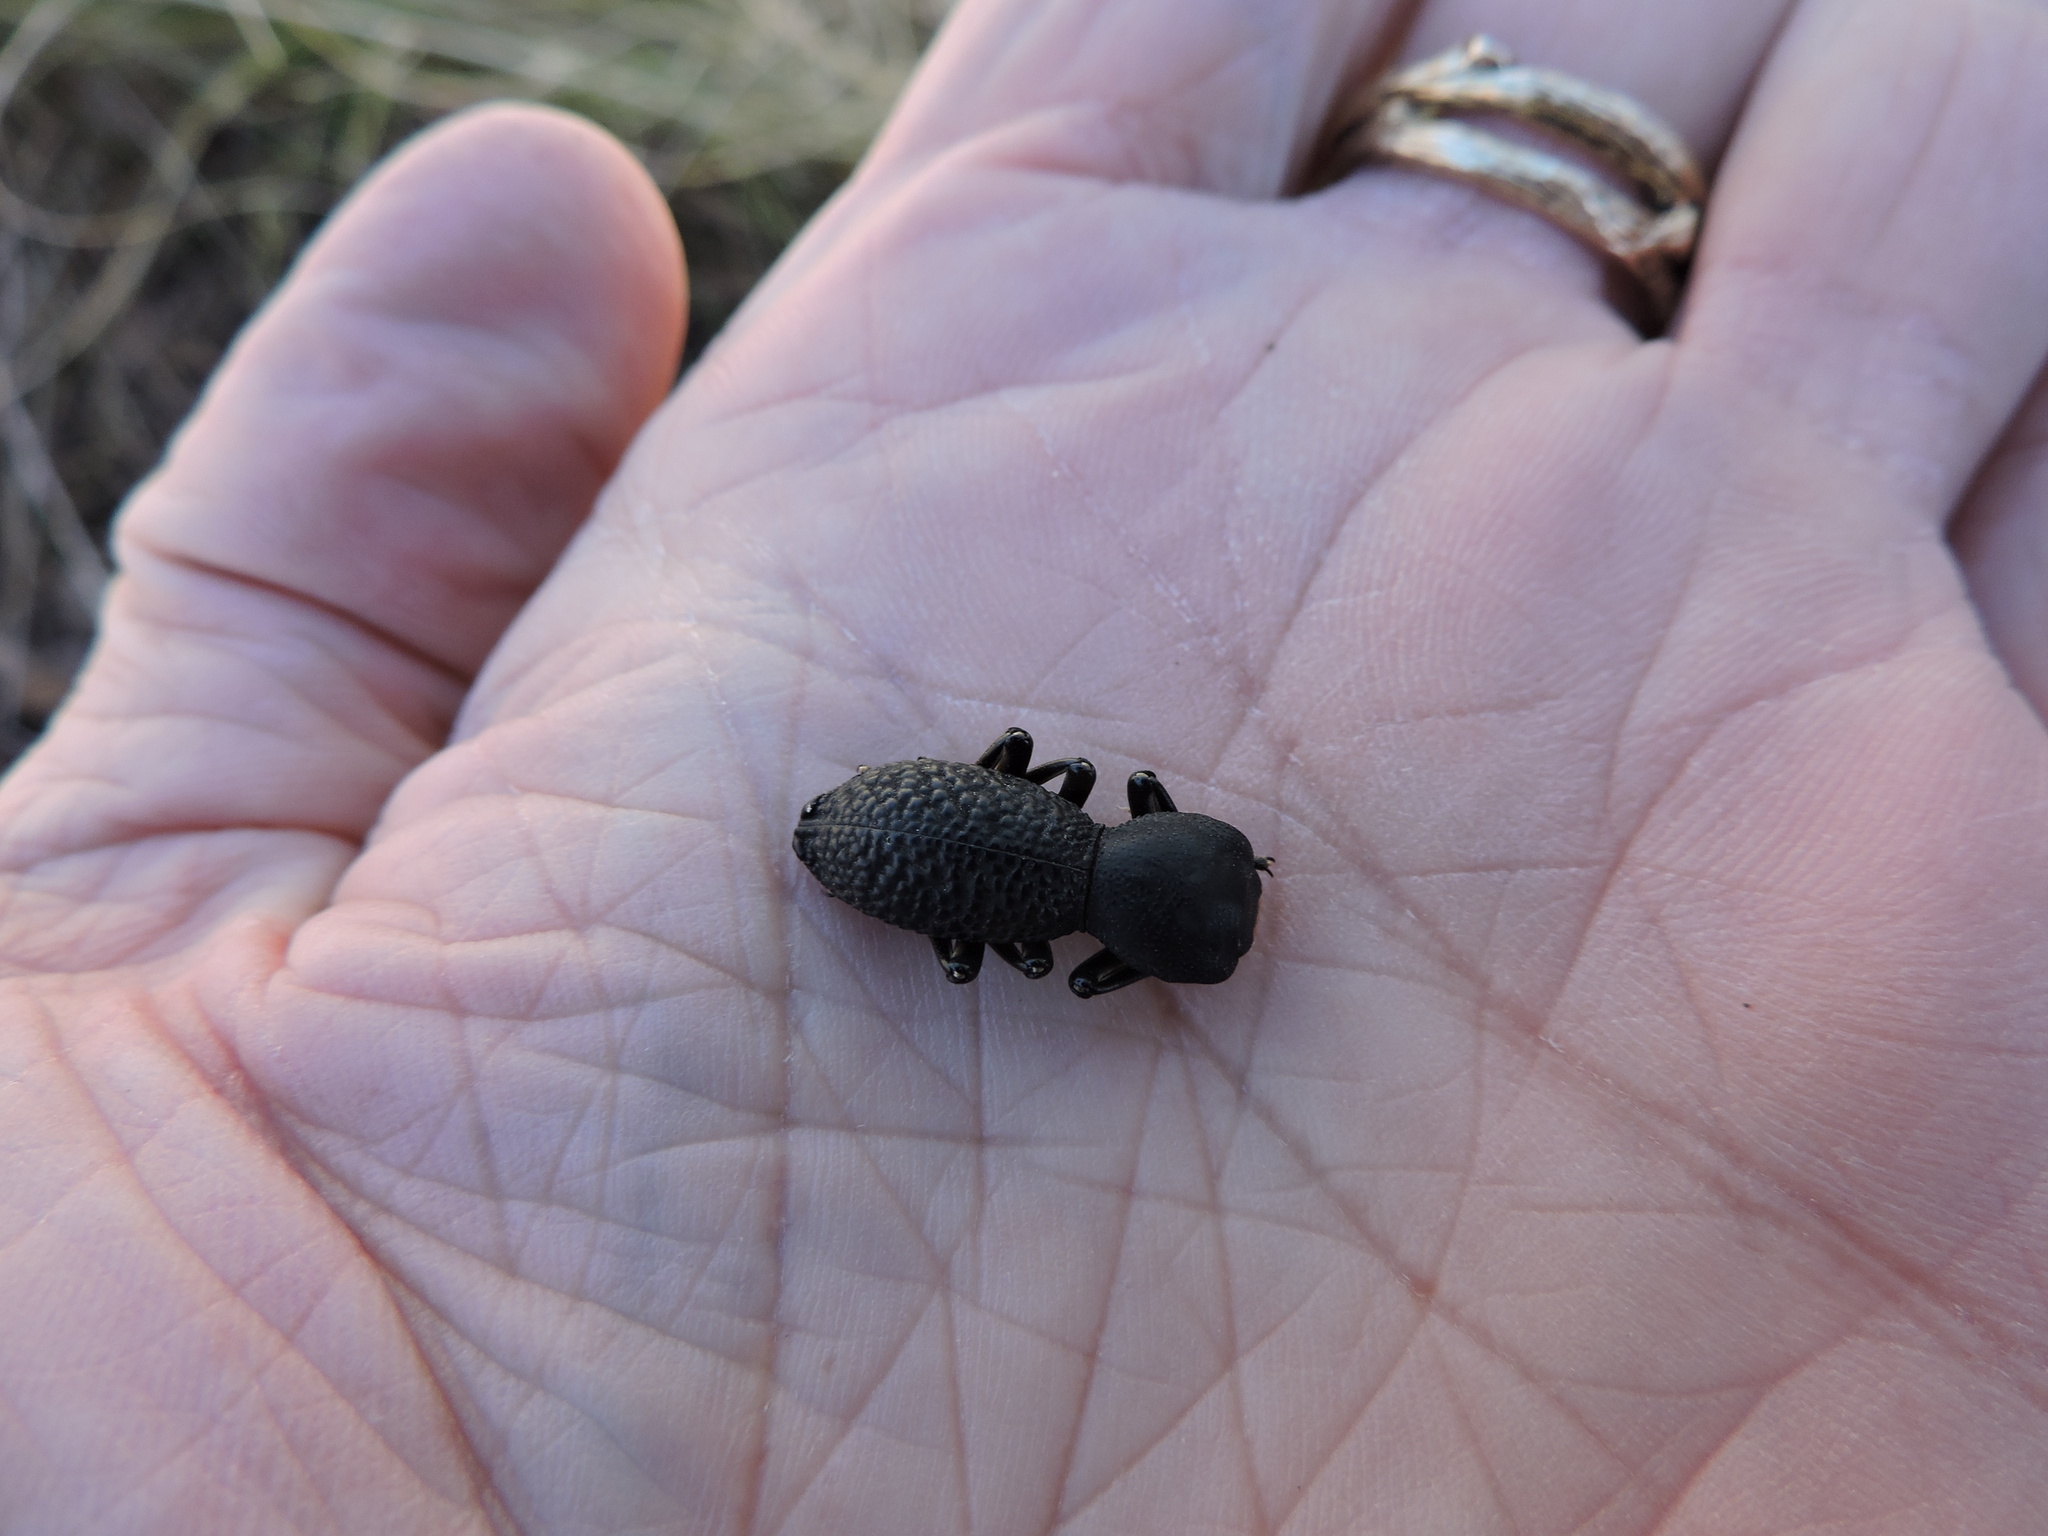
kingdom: Animalia
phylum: Arthropoda
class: Insecta
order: Coleoptera
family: Zopheridae
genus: Zopherus
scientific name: Zopherus concolor
